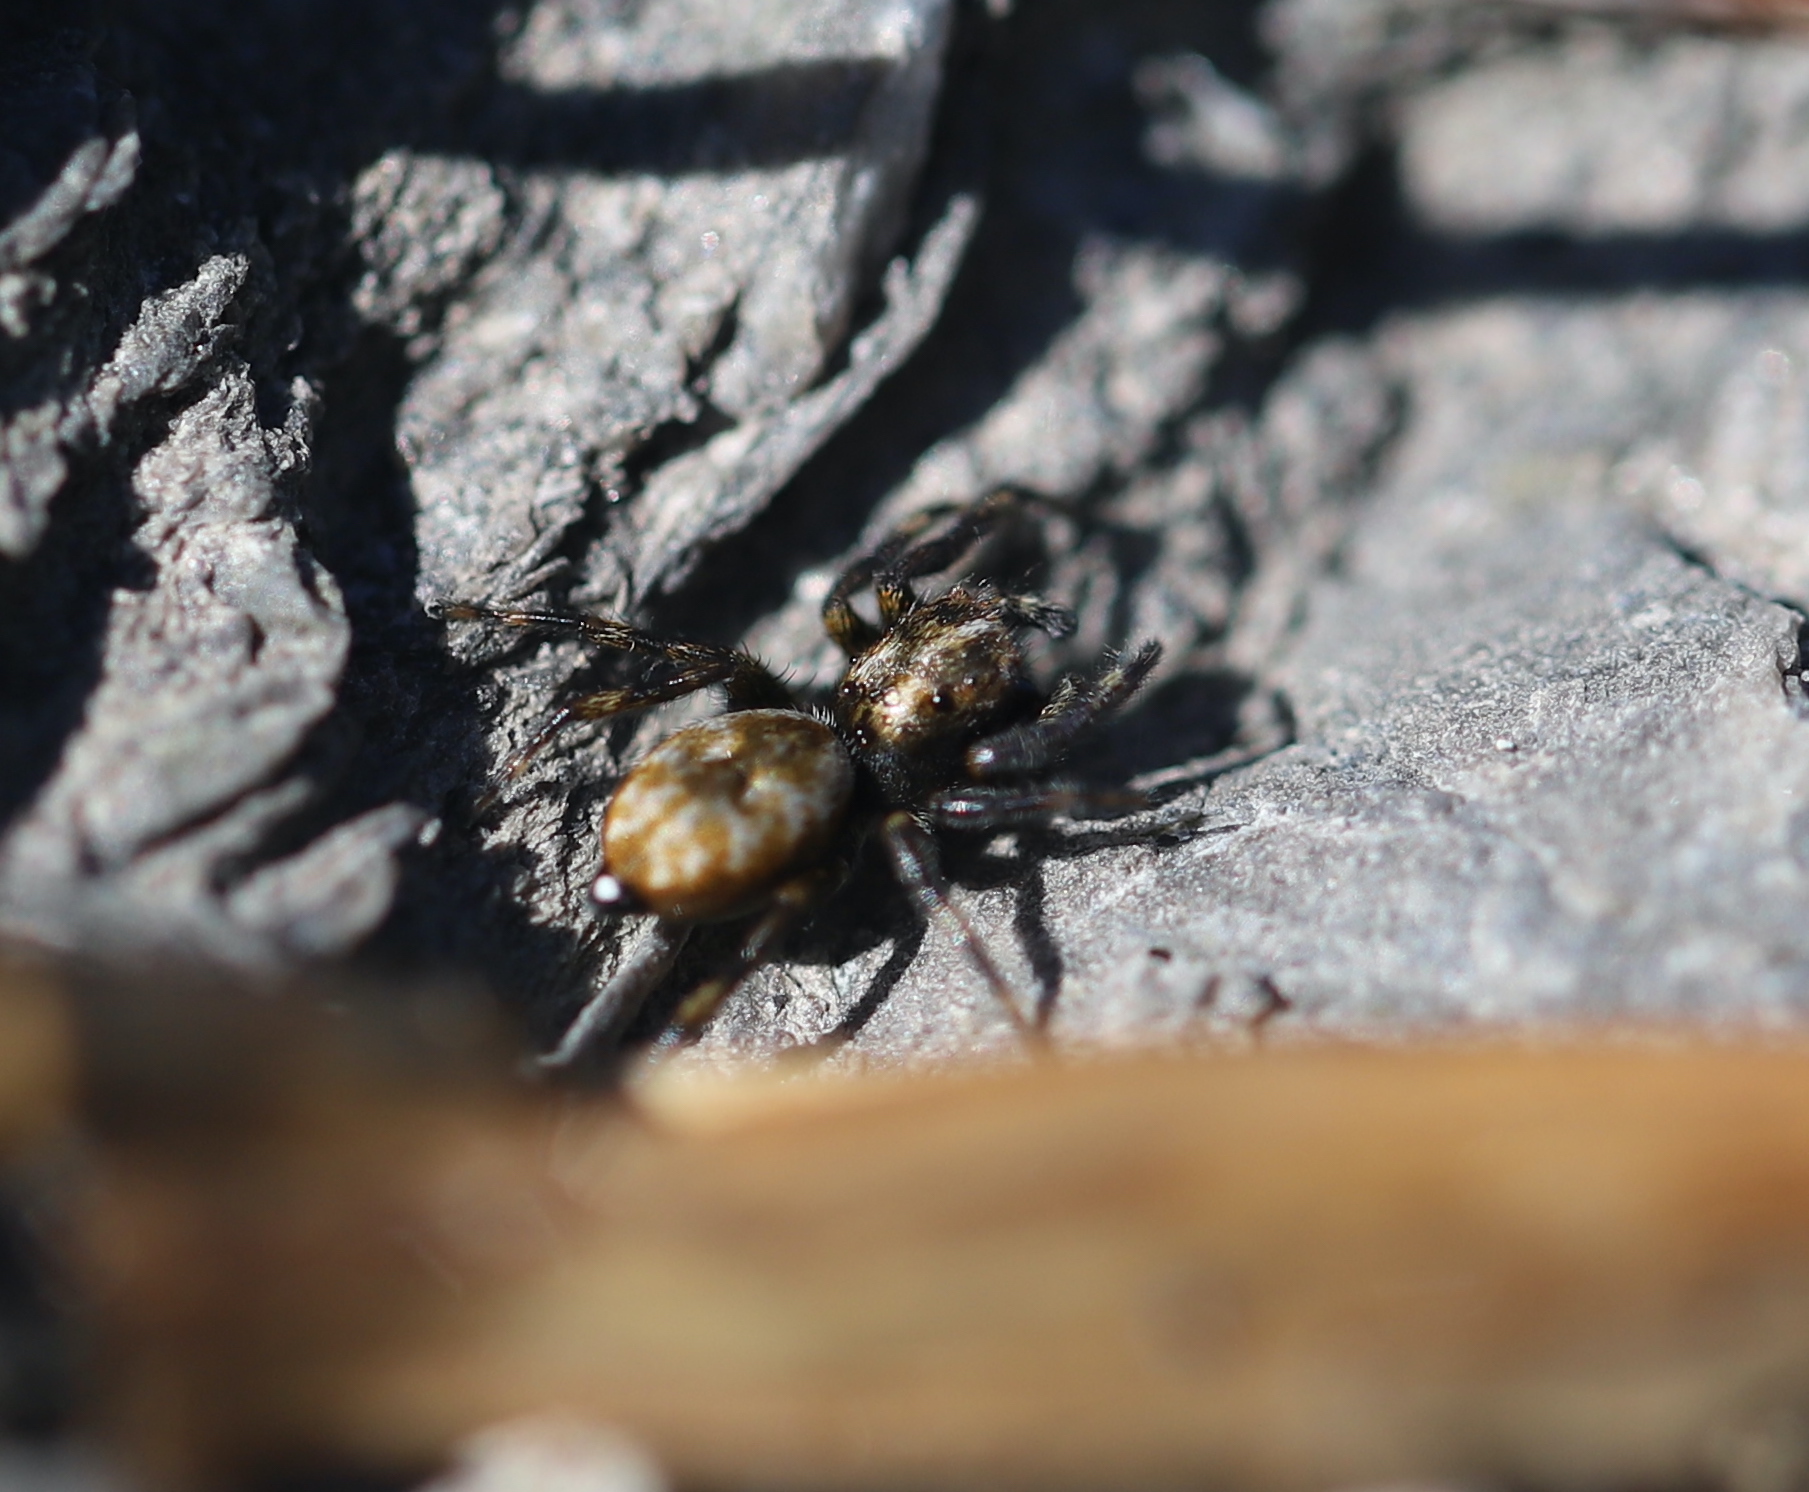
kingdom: Animalia
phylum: Arthropoda
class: Arachnida
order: Araneae
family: Salticidae
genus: Hakka
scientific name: Hakka himeshimensis
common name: Jumping spider
